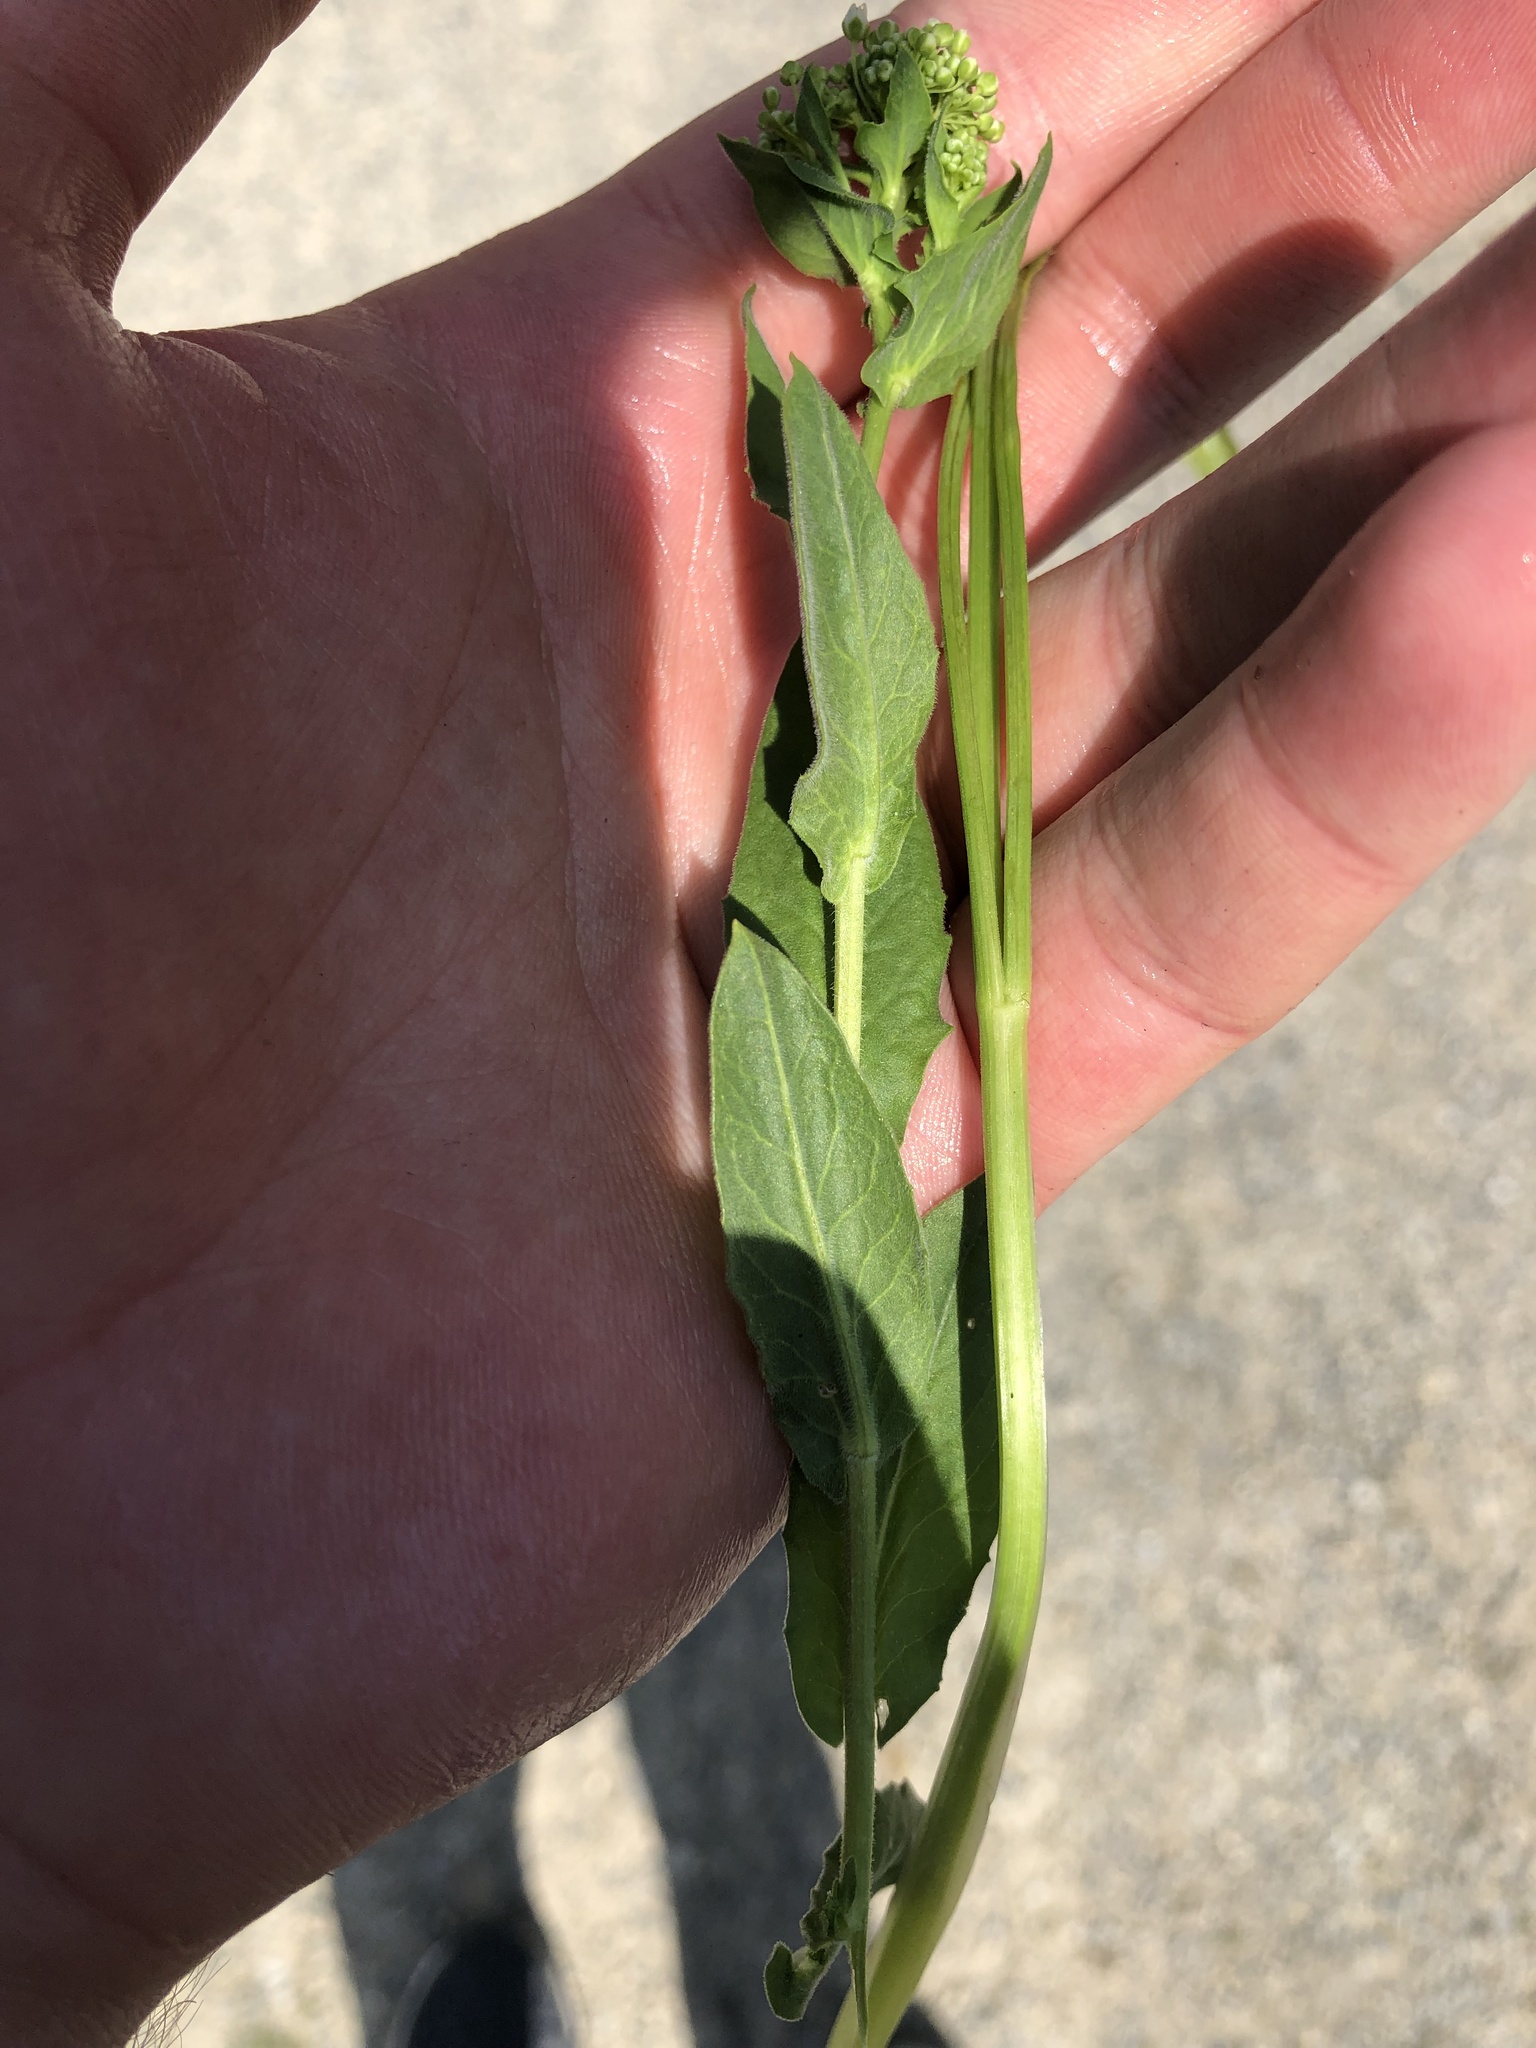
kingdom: Plantae
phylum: Tracheophyta
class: Magnoliopsida
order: Brassicales
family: Brassicaceae
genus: Lepidium
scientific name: Lepidium draba
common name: Hoary cress
